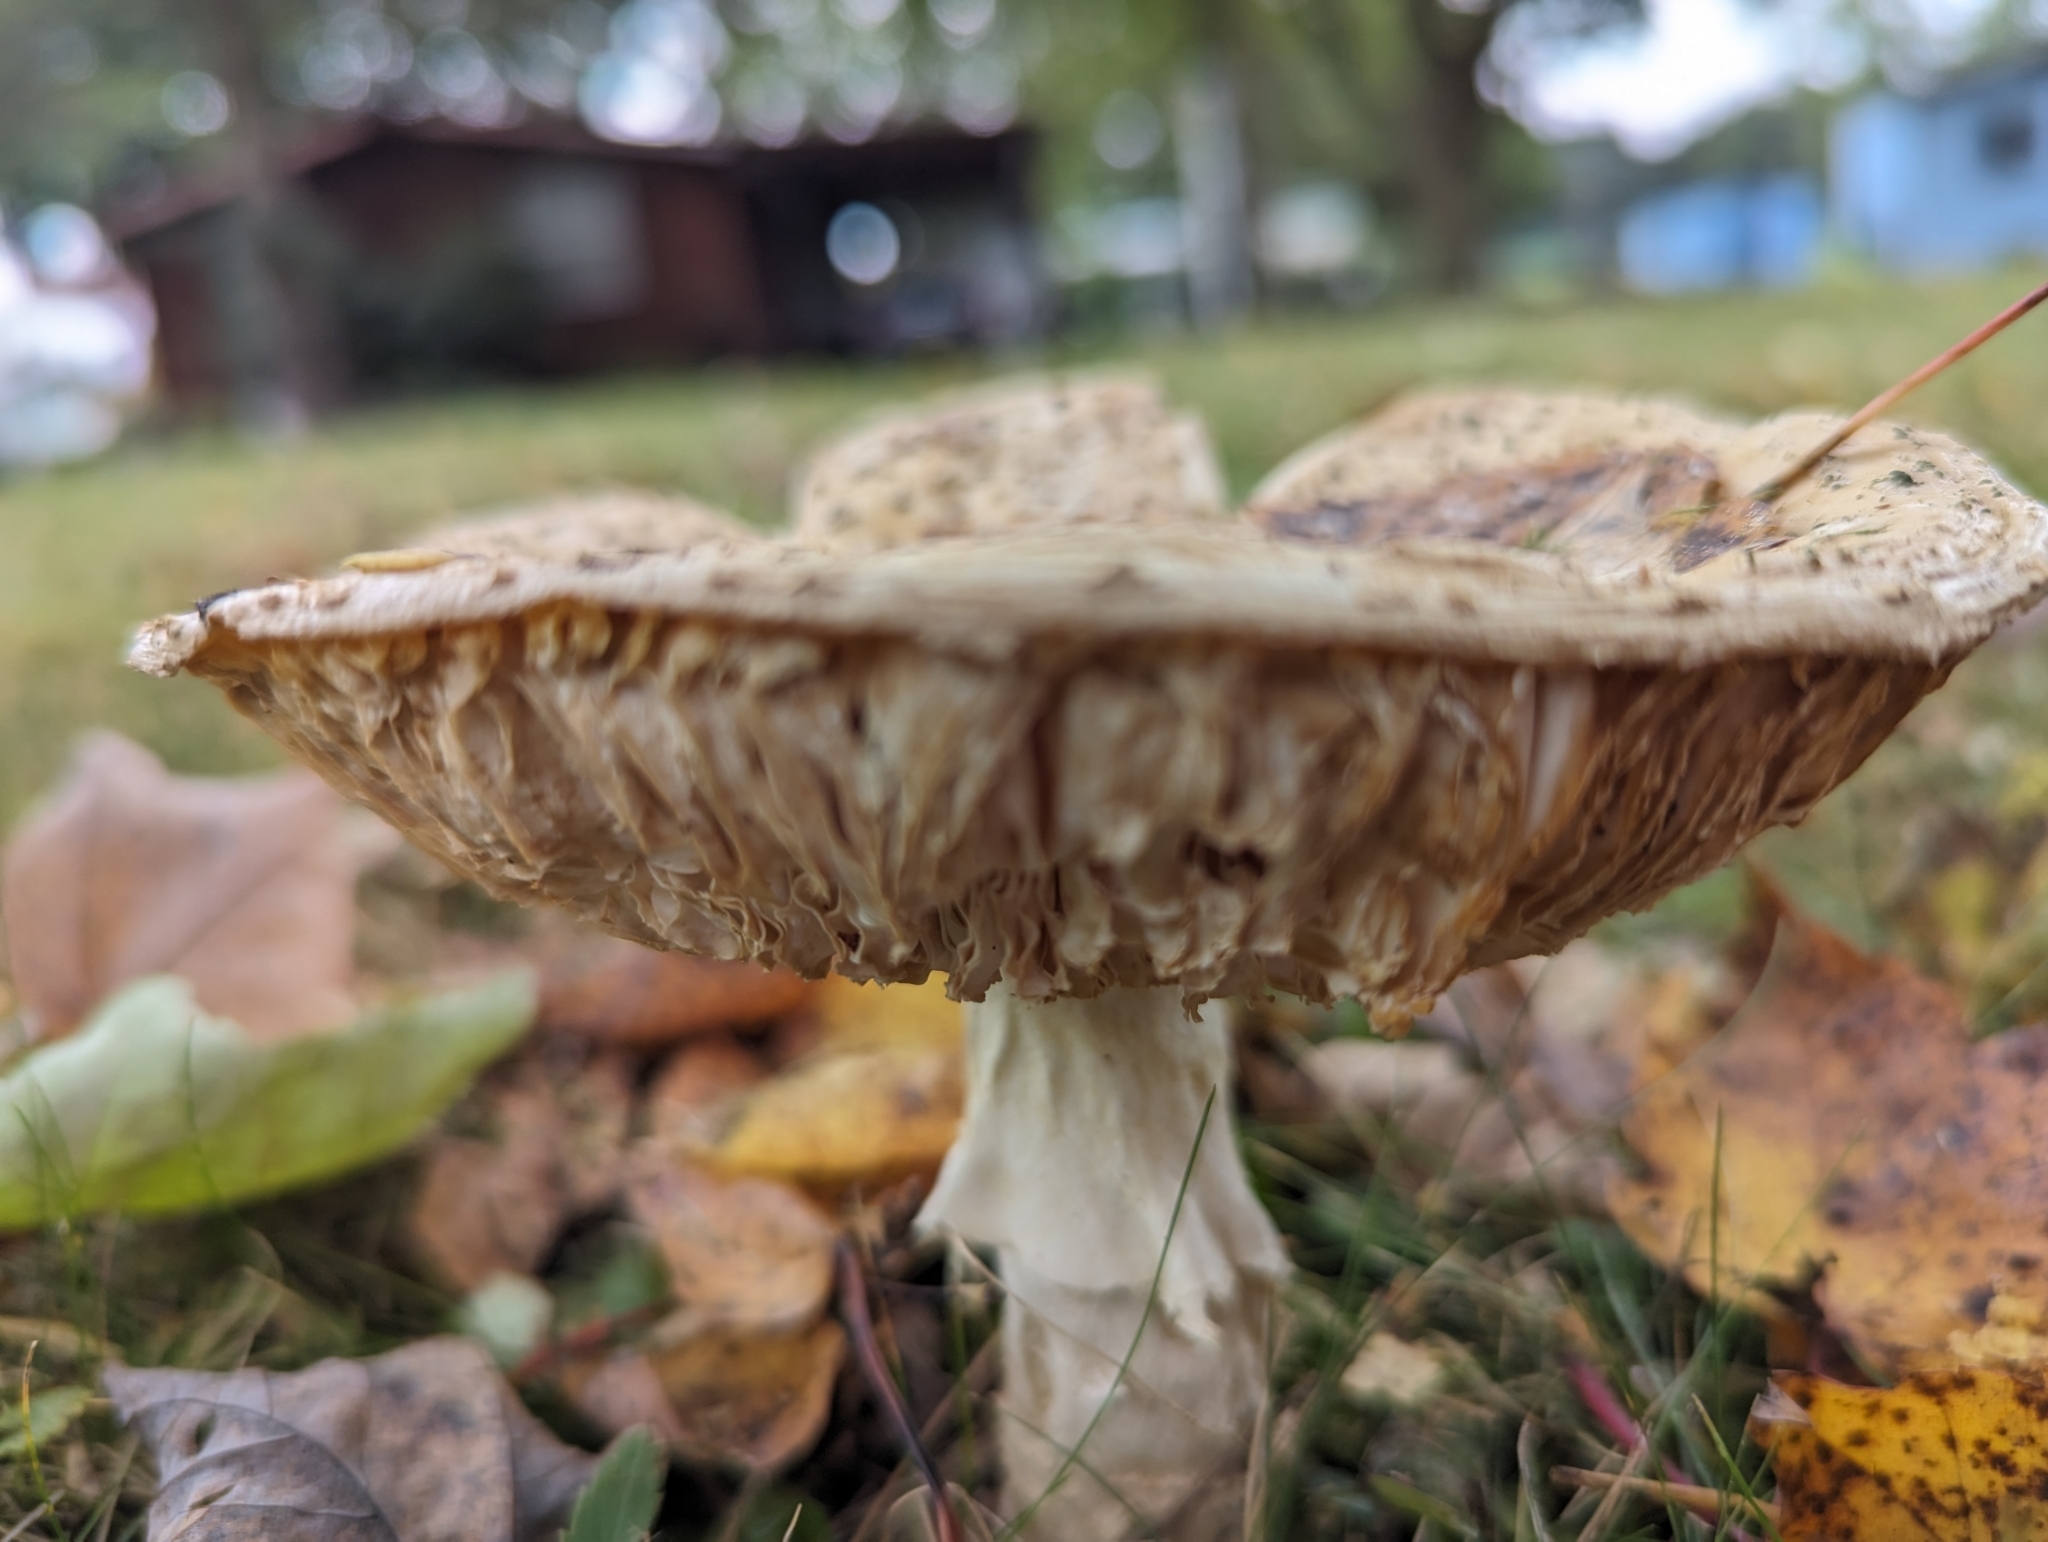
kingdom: Fungi
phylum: Basidiomycota
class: Agaricomycetes
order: Agaricales
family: Amanitaceae
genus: Amanita
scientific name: Amanita muscaria
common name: Fly agaric
